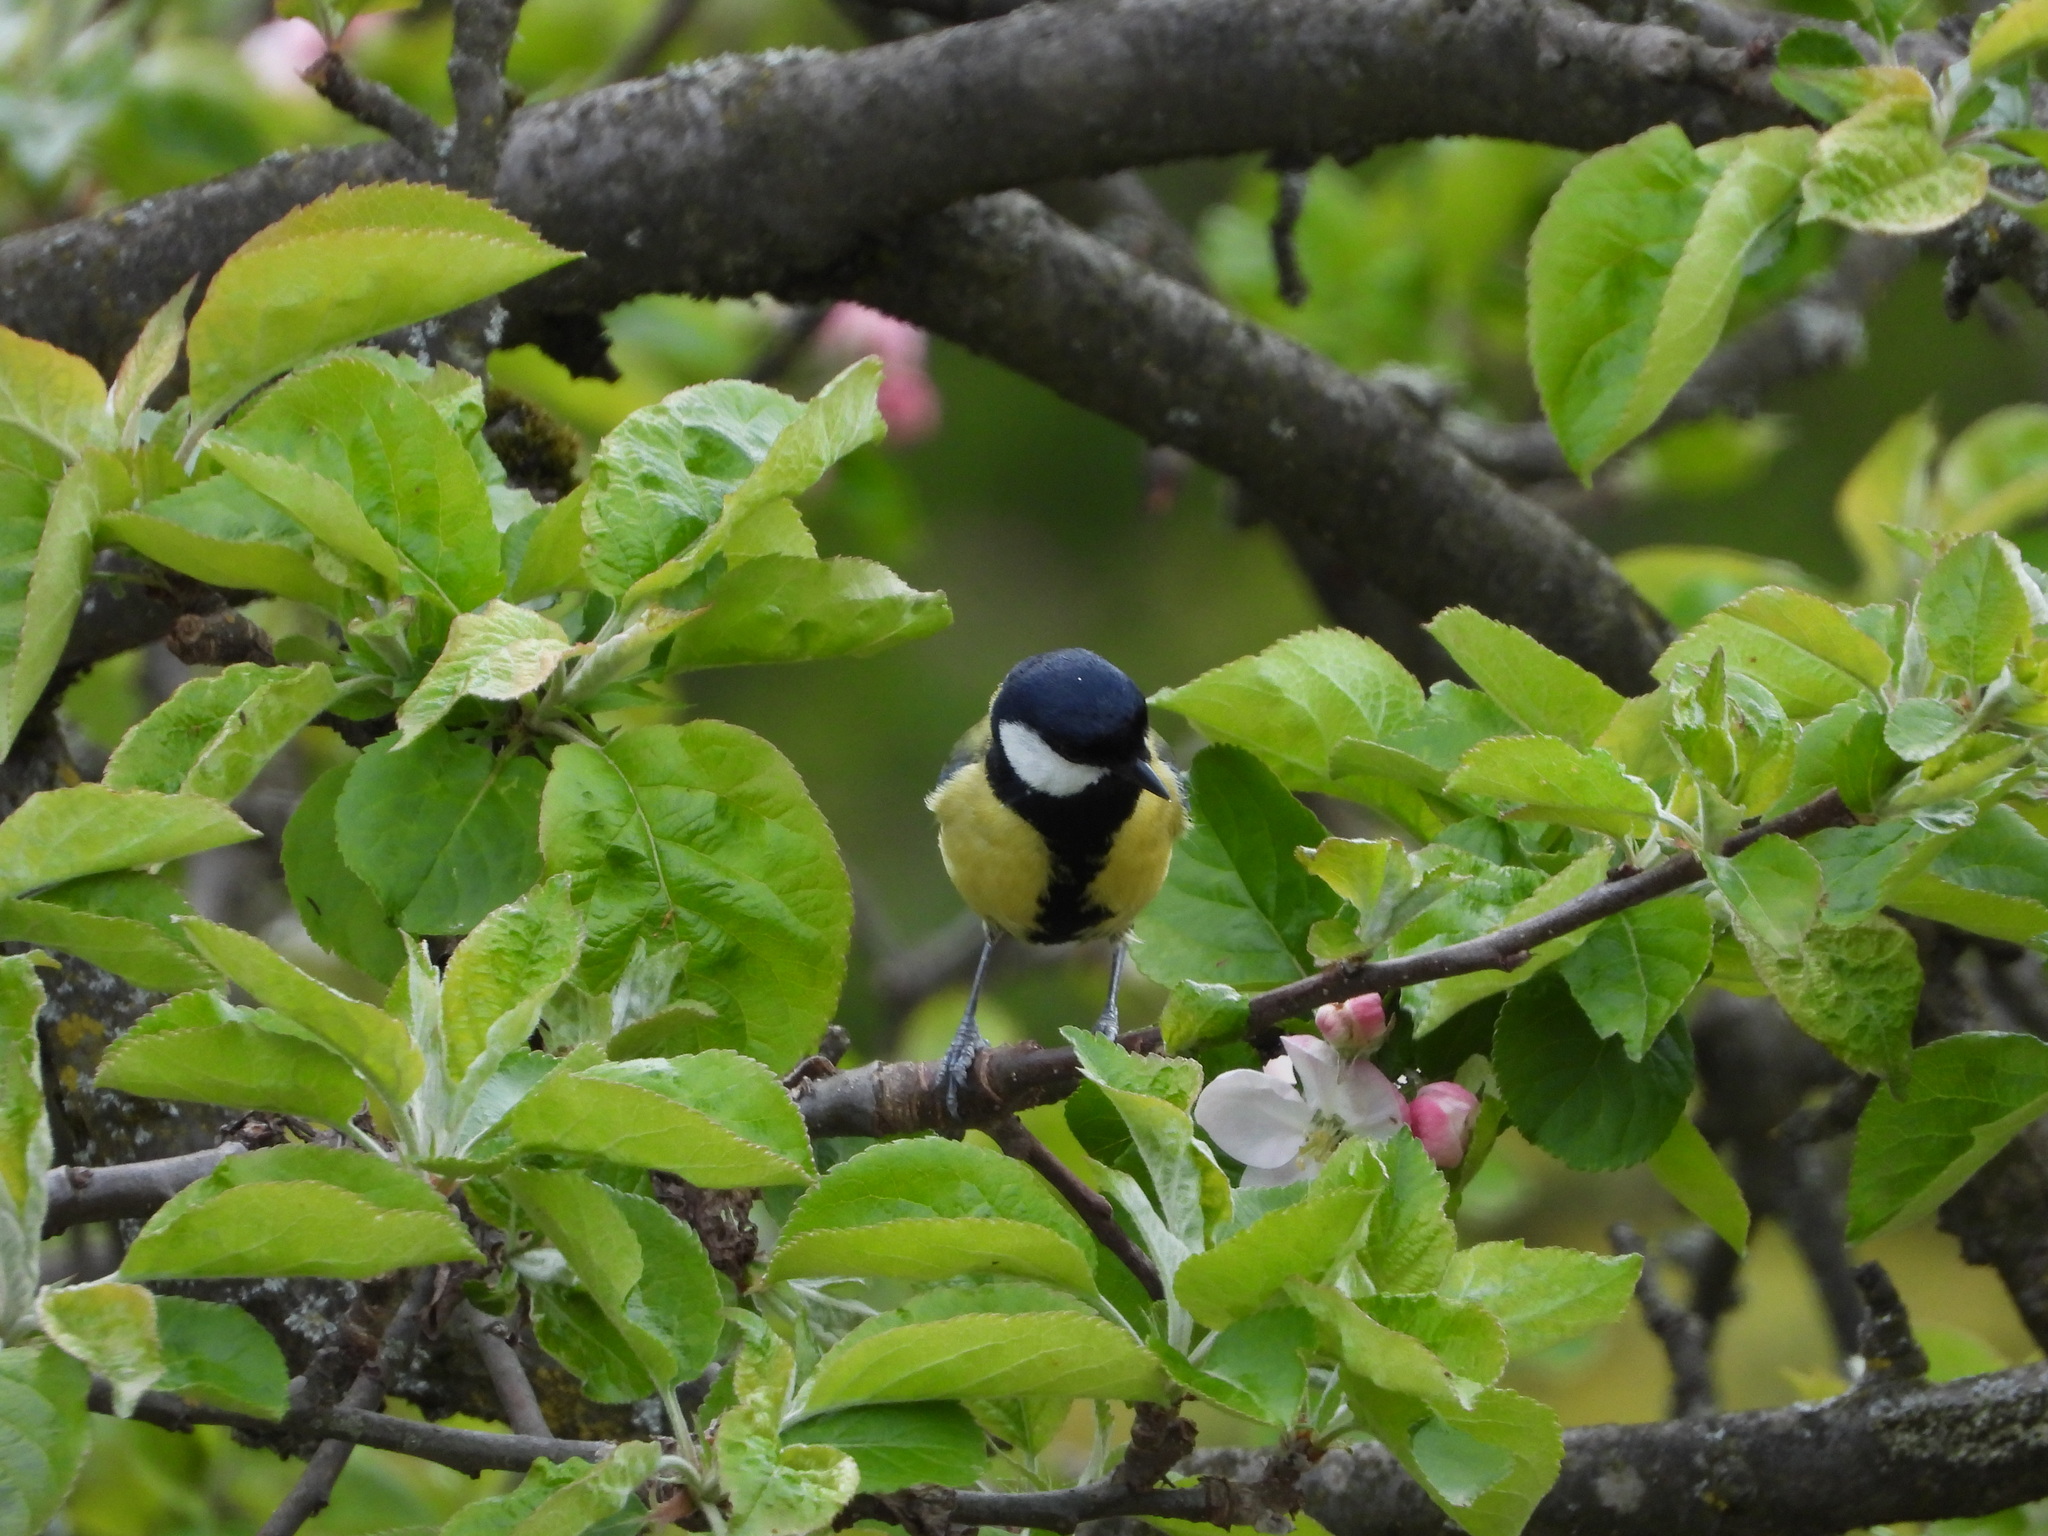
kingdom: Animalia
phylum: Chordata
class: Aves
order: Passeriformes
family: Paridae
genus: Parus
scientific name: Parus major
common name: Great tit
